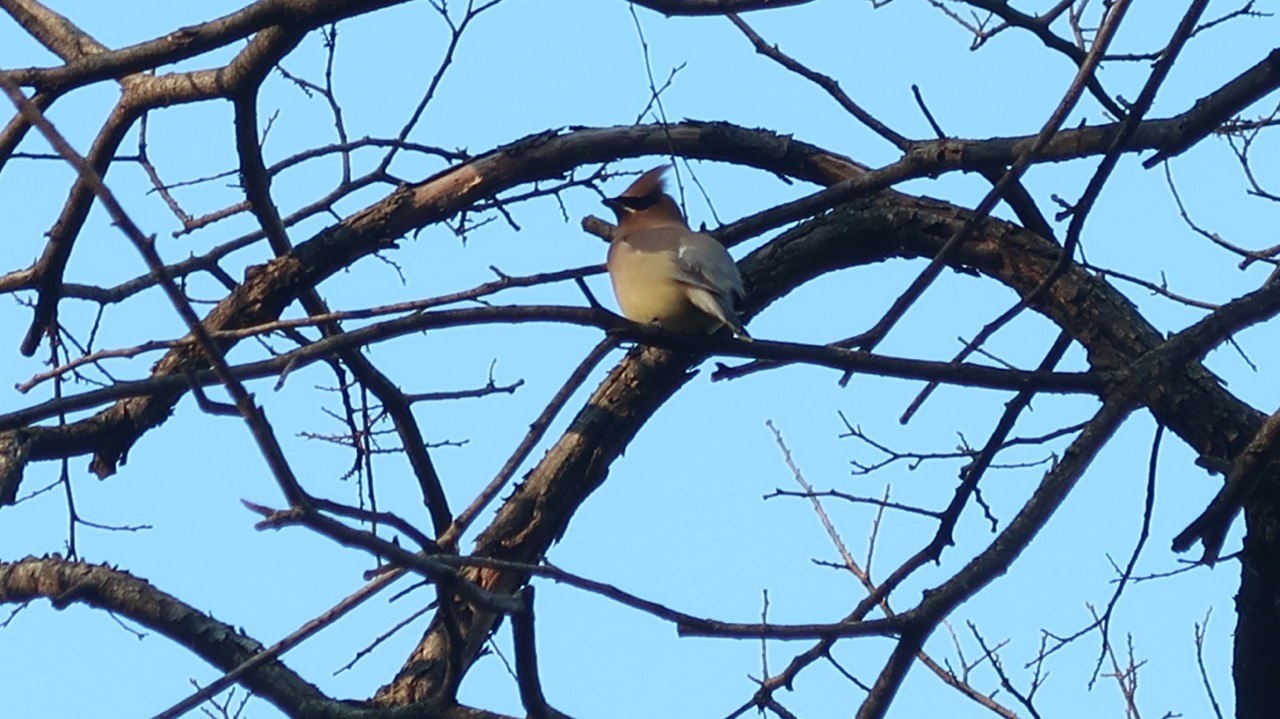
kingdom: Animalia
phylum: Chordata
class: Aves
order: Passeriformes
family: Bombycillidae
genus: Bombycilla
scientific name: Bombycilla cedrorum
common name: Cedar waxwing
